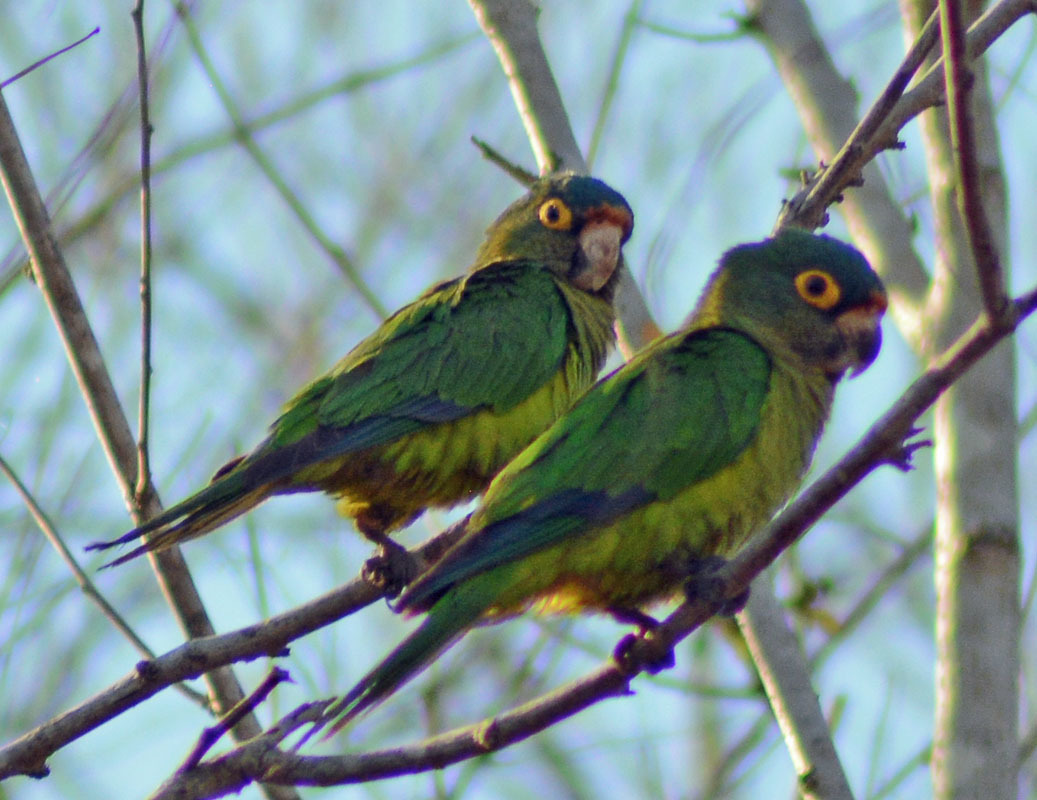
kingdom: Animalia
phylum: Chordata
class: Aves
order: Psittaciformes
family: Psittacidae
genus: Aratinga
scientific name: Aratinga canicularis
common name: Orange-fronted parakeet
